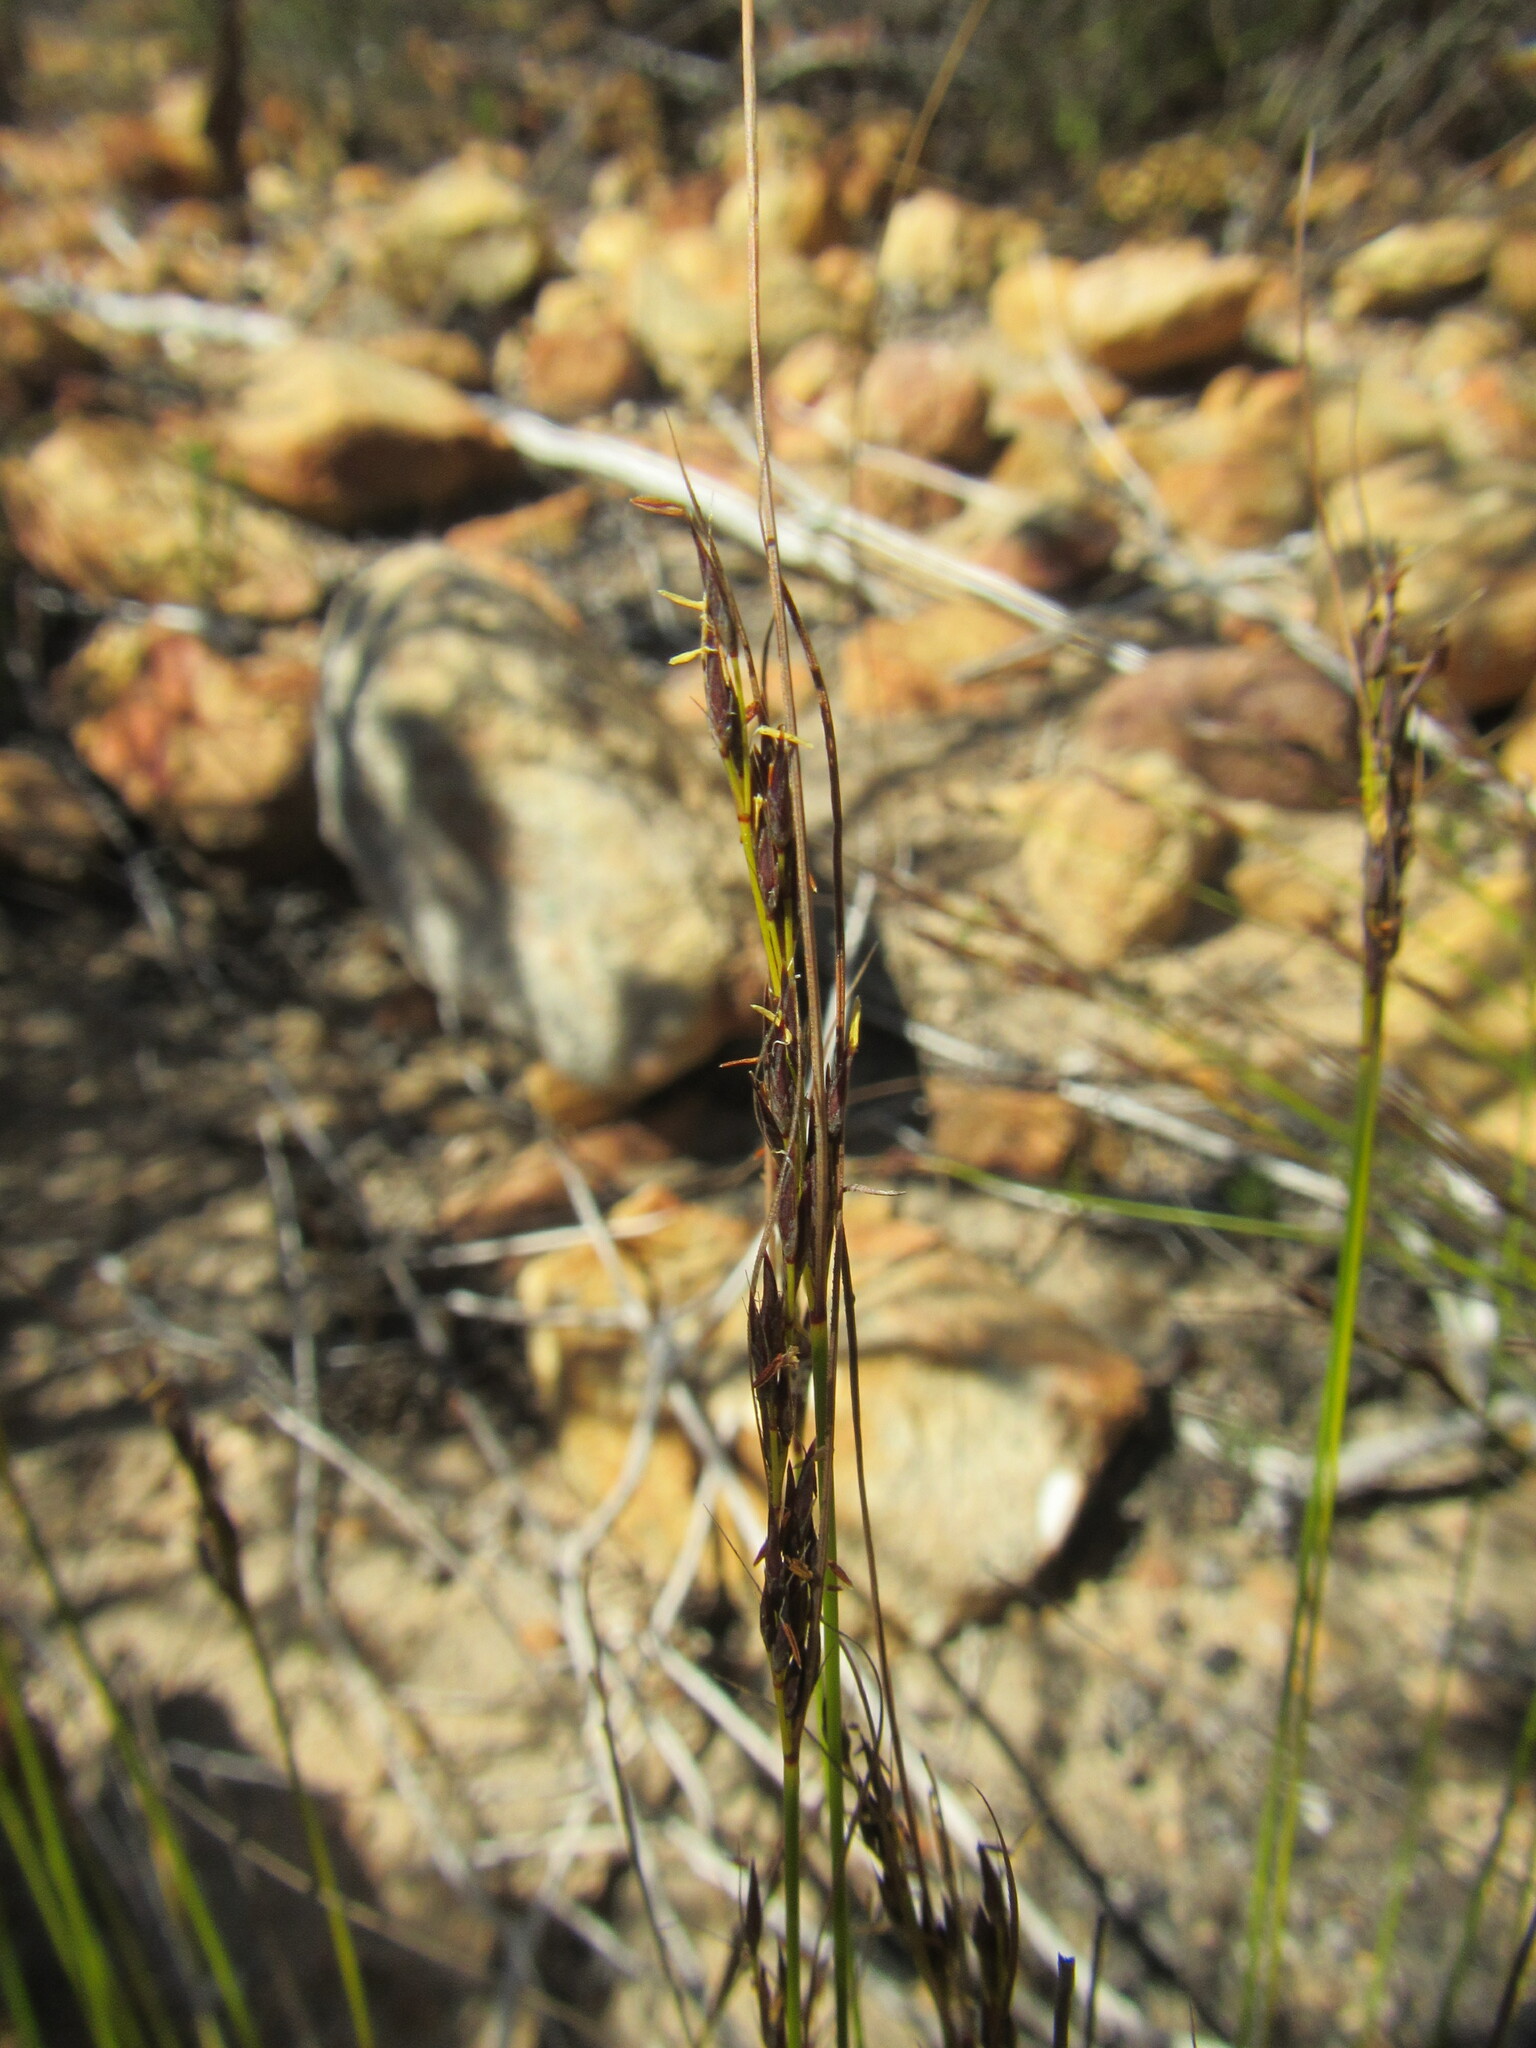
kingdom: Plantae
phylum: Tracheophyta
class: Liliopsida
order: Poales
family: Cyperaceae
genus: Schoenus
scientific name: Schoenus cuspidatus
